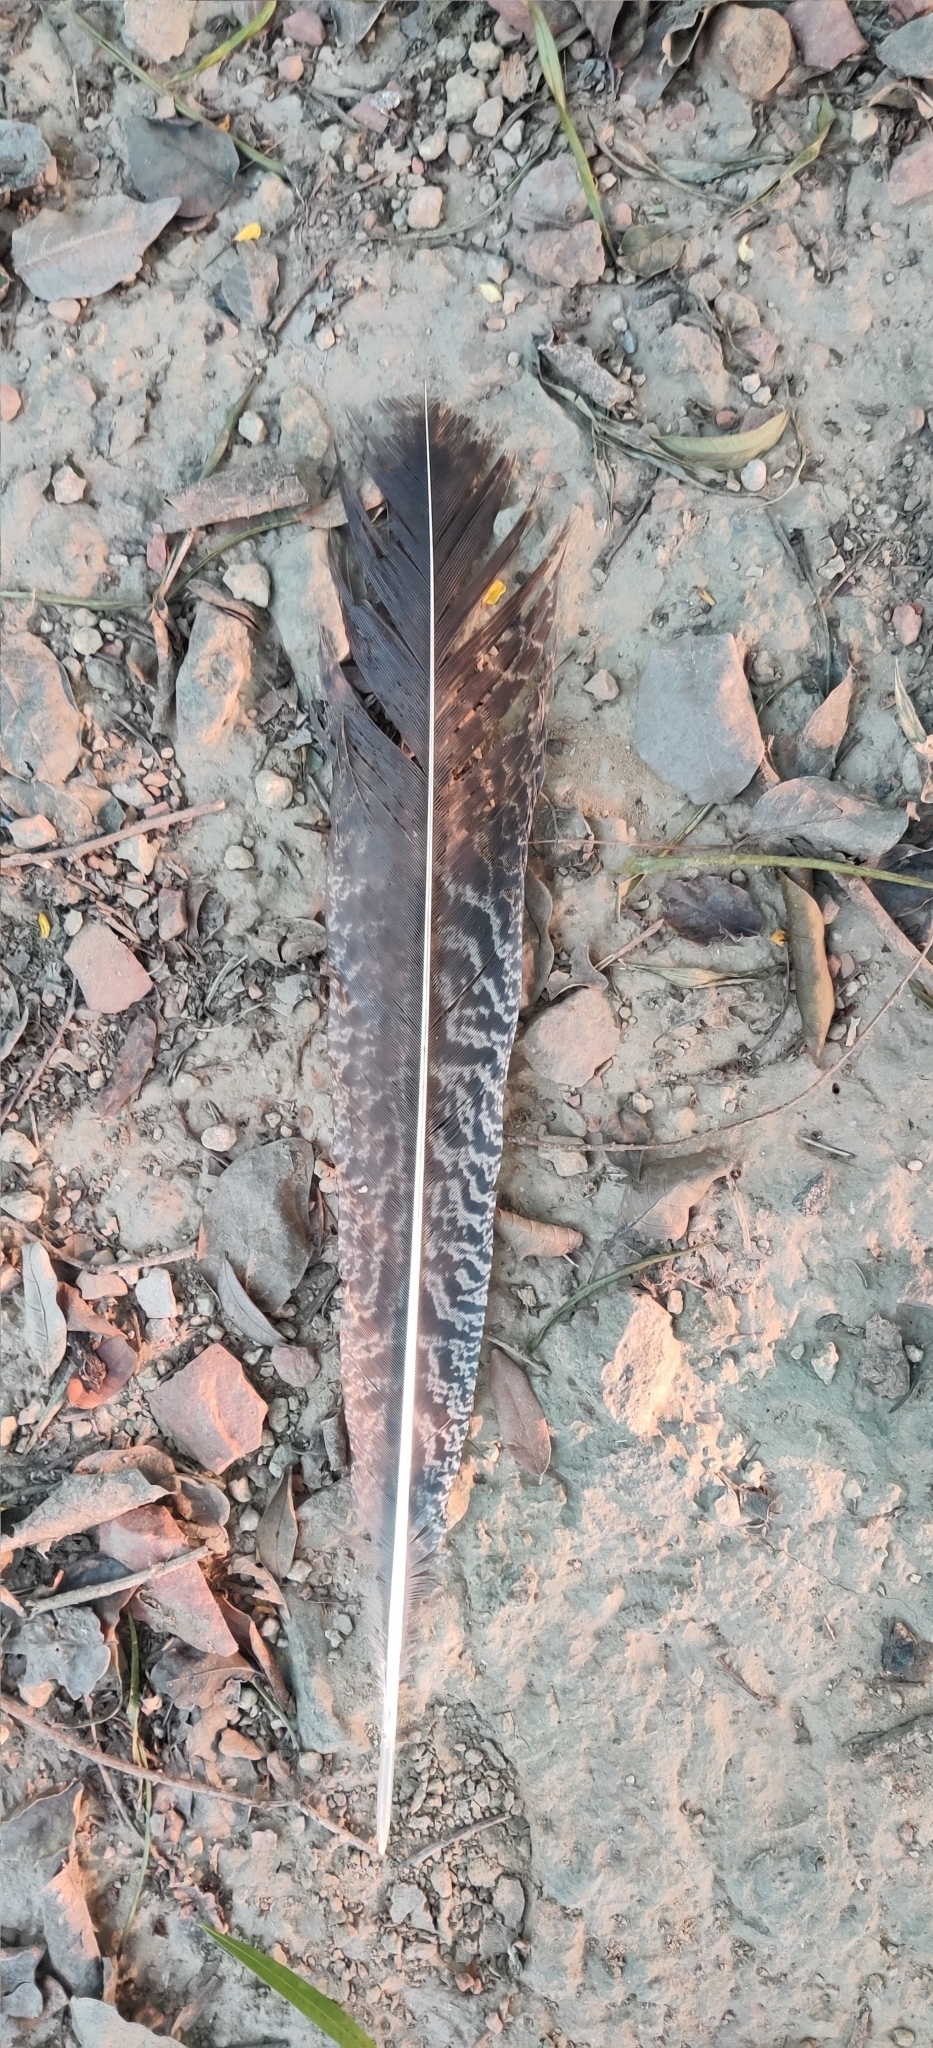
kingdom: Animalia
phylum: Chordata
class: Aves
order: Galliformes
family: Phasianidae
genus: Pavo
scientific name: Pavo cristatus
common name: Indian peafowl
